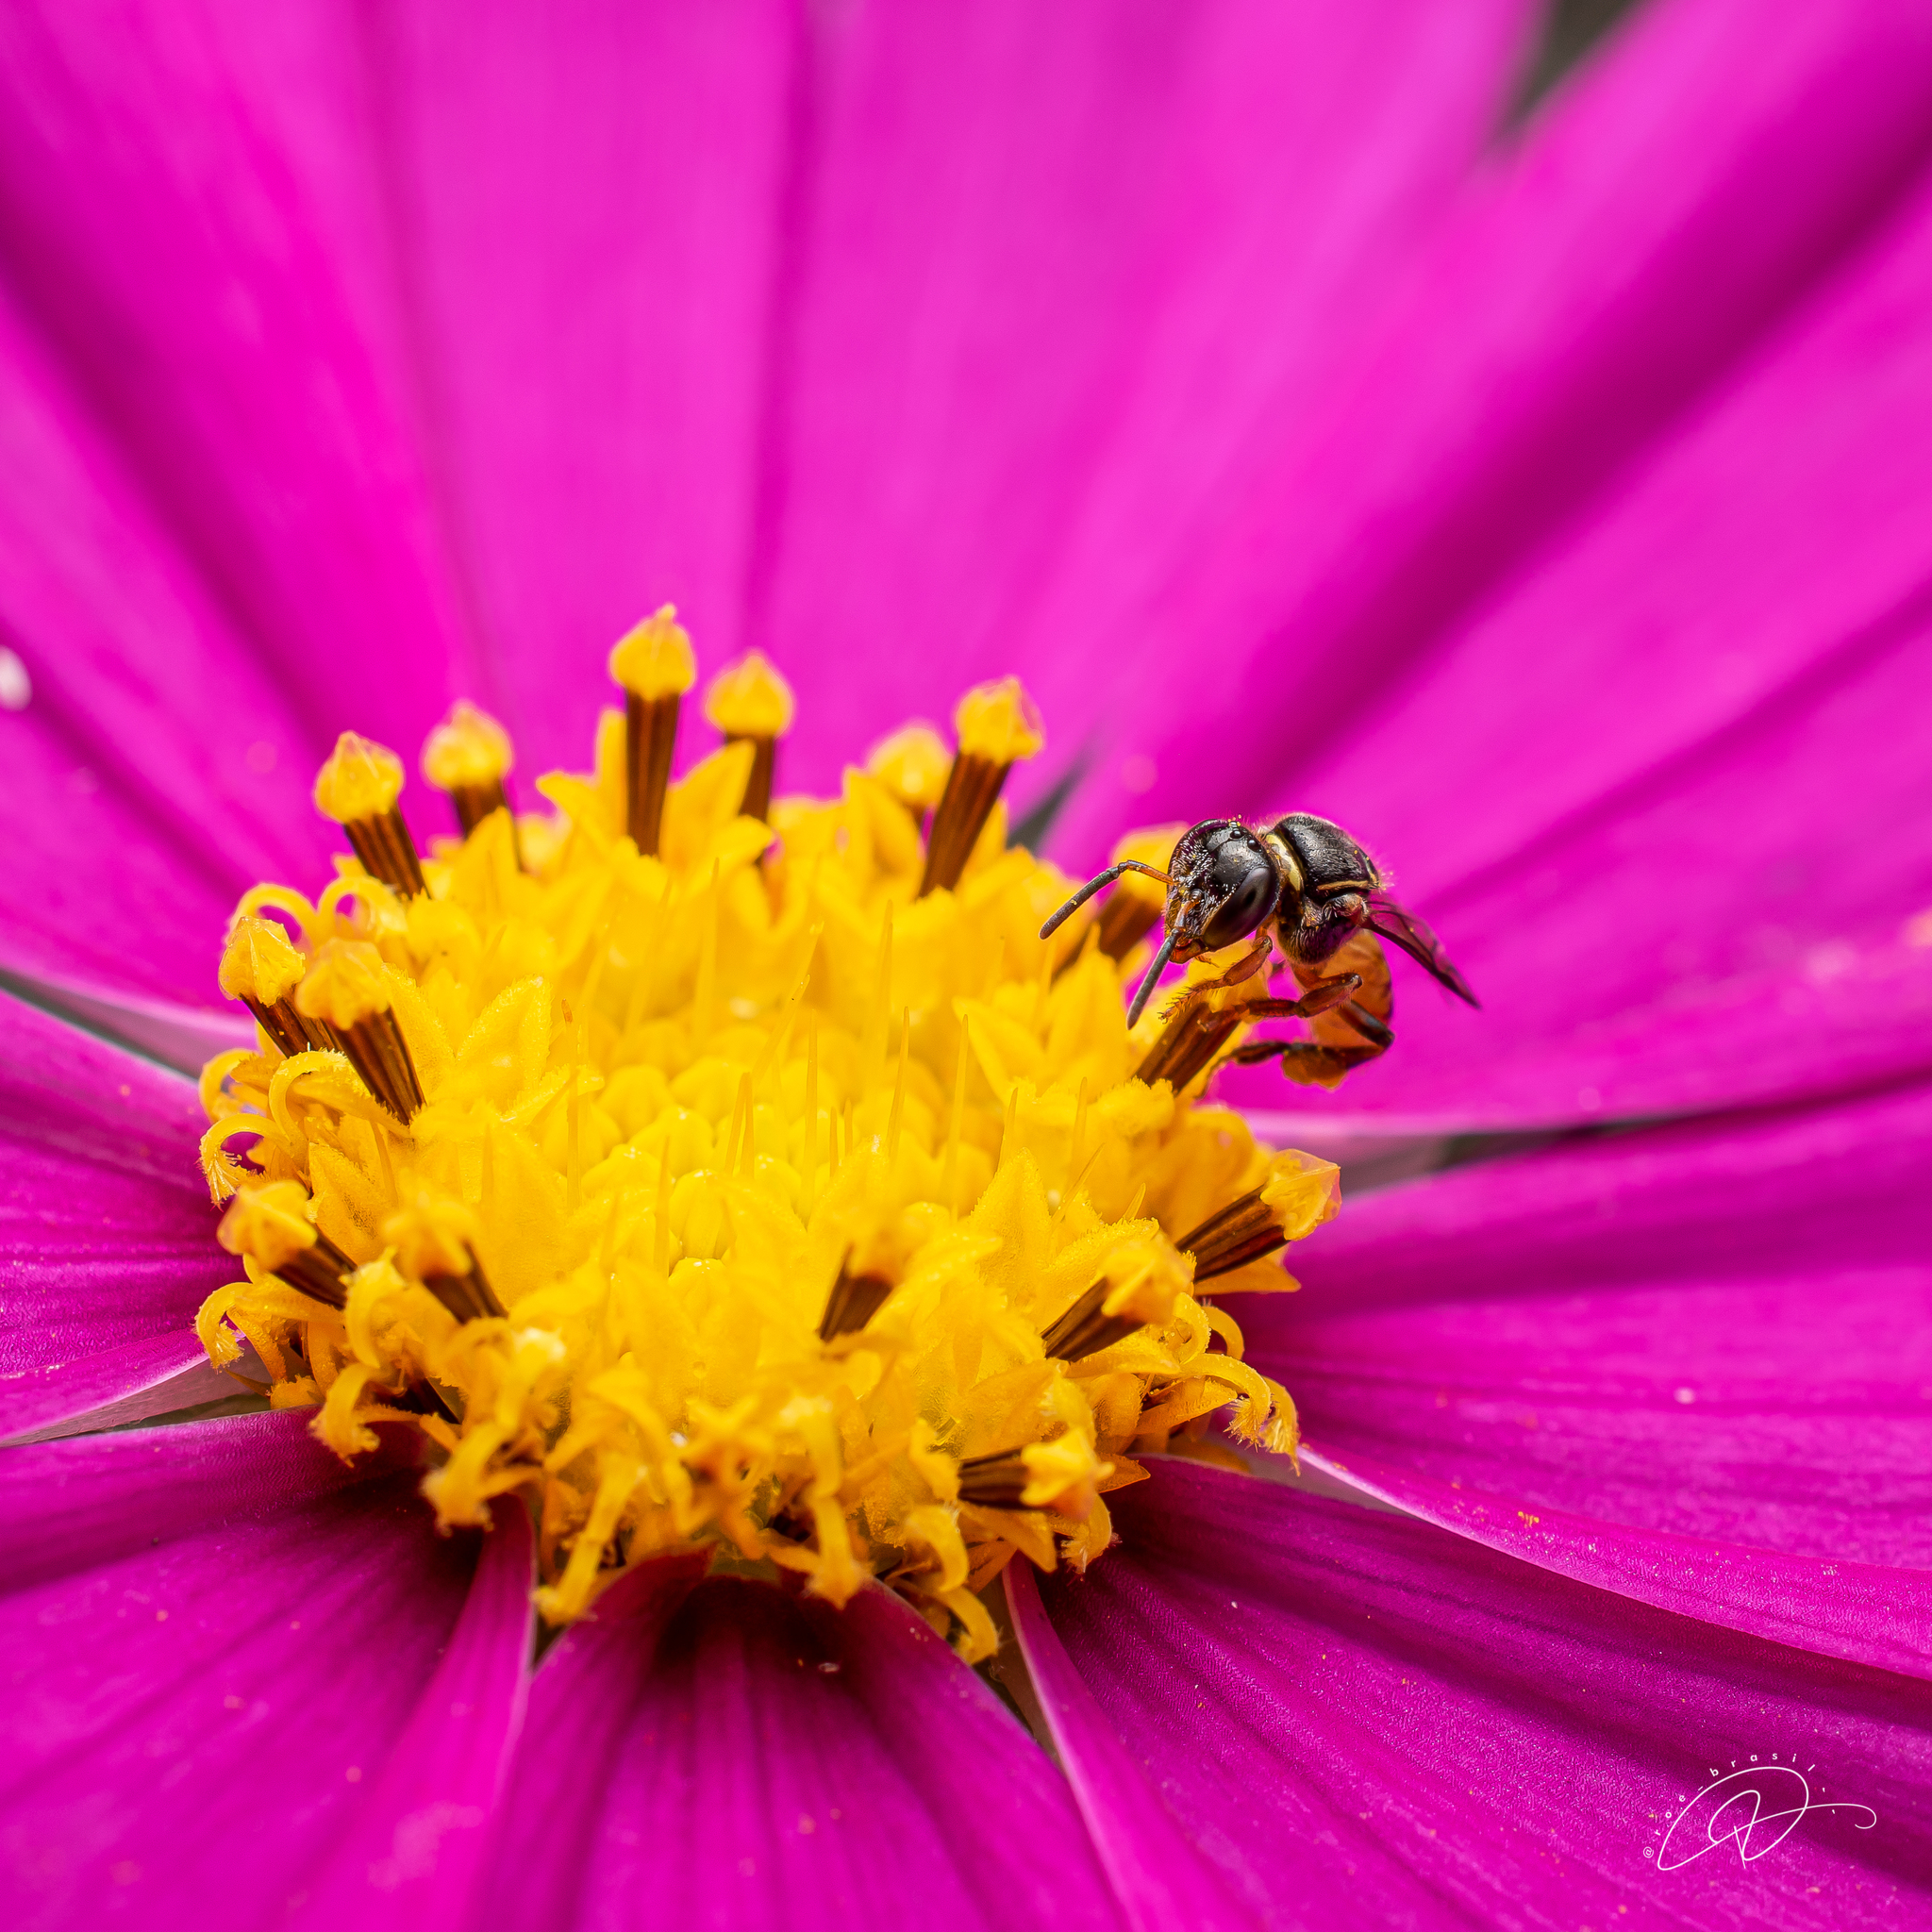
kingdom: Animalia
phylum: Arthropoda
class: Insecta
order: Hymenoptera
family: Apidae
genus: Plebeia
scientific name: Plebeia emerina
